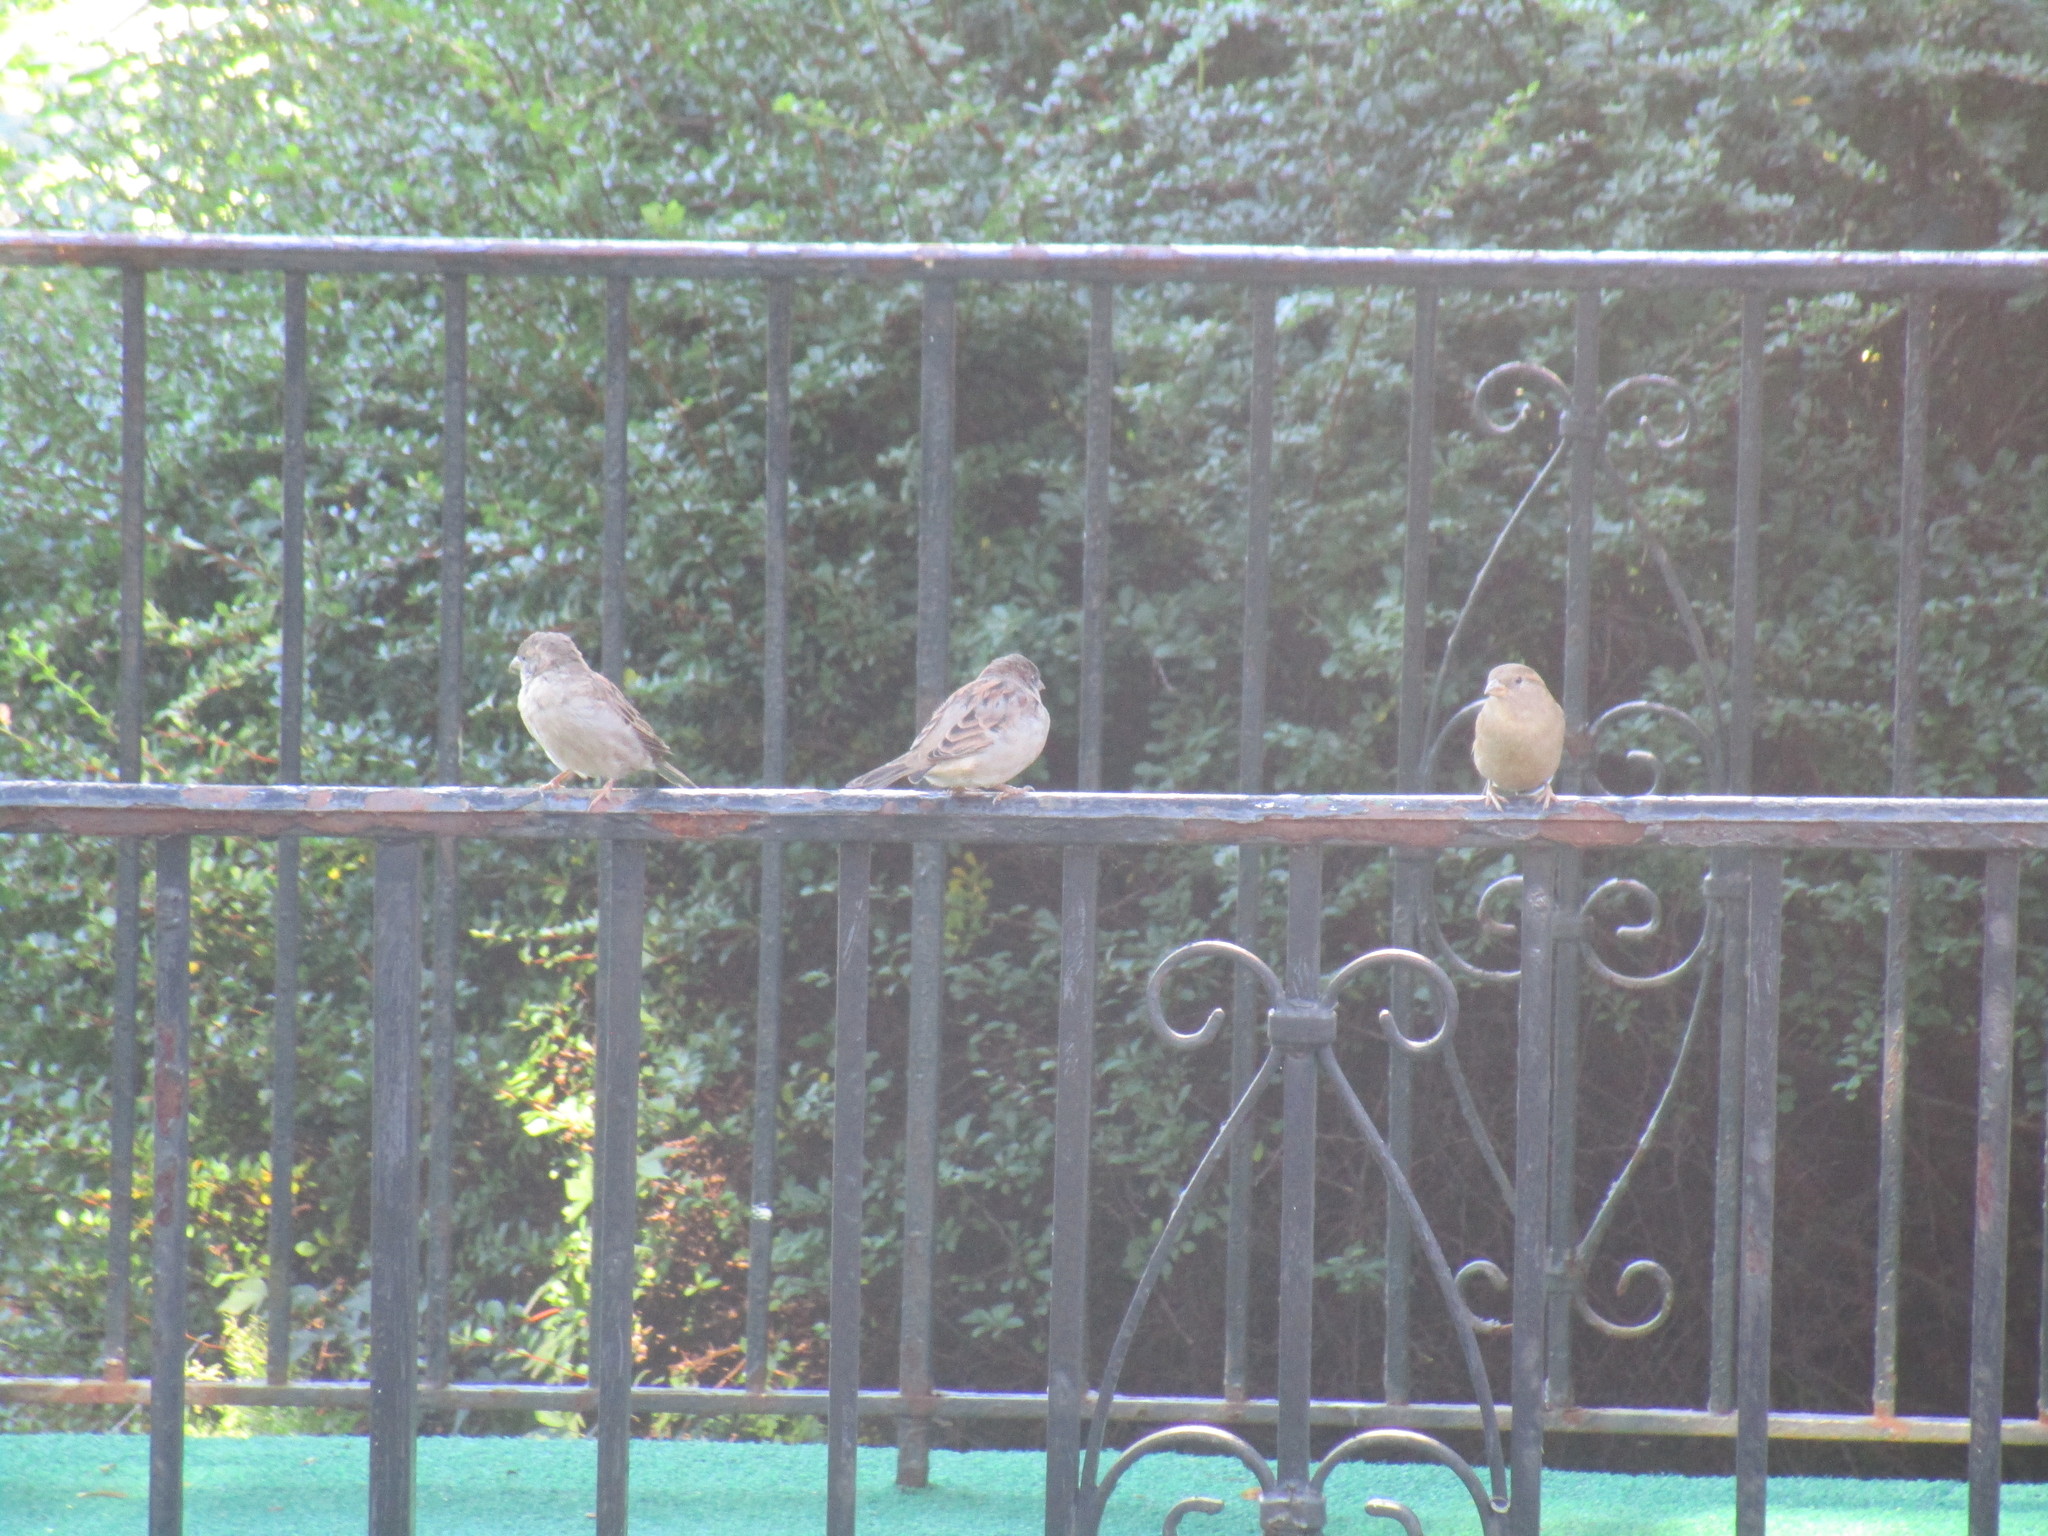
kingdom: Animalia
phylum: Chordata
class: Aves
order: Passeriformes
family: Passeridae
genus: Passer
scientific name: Passer domesticus
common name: House sparrow
